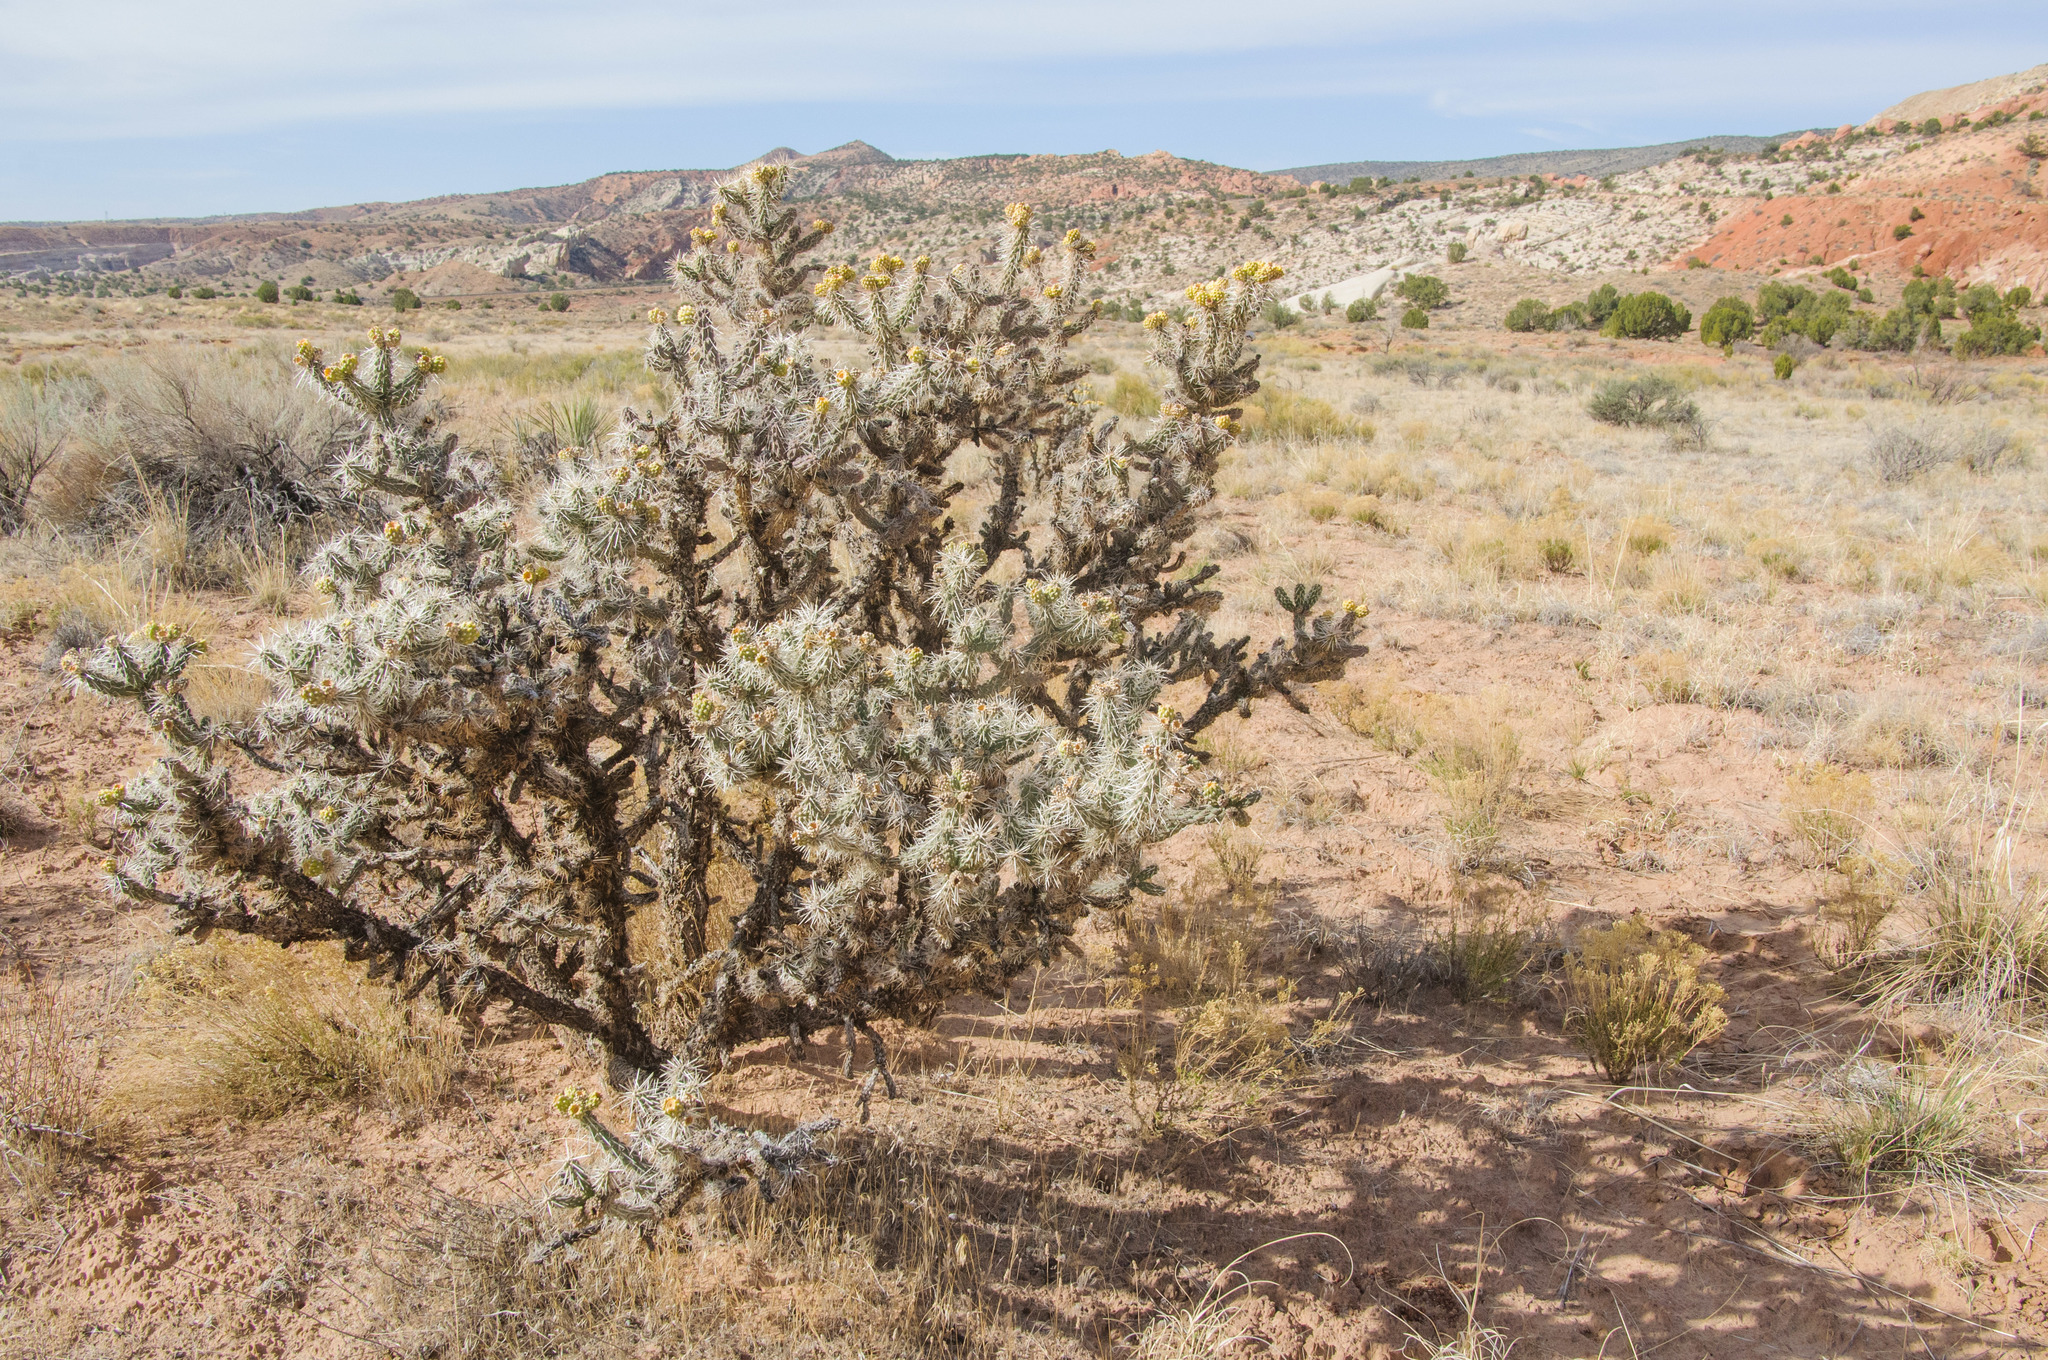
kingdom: Plantae
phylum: Tracheophyta
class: Magnoliopsida
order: Caryophyllales
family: Cactaceae
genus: Cylindropuntia
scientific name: Cylindropuntia whipplei
